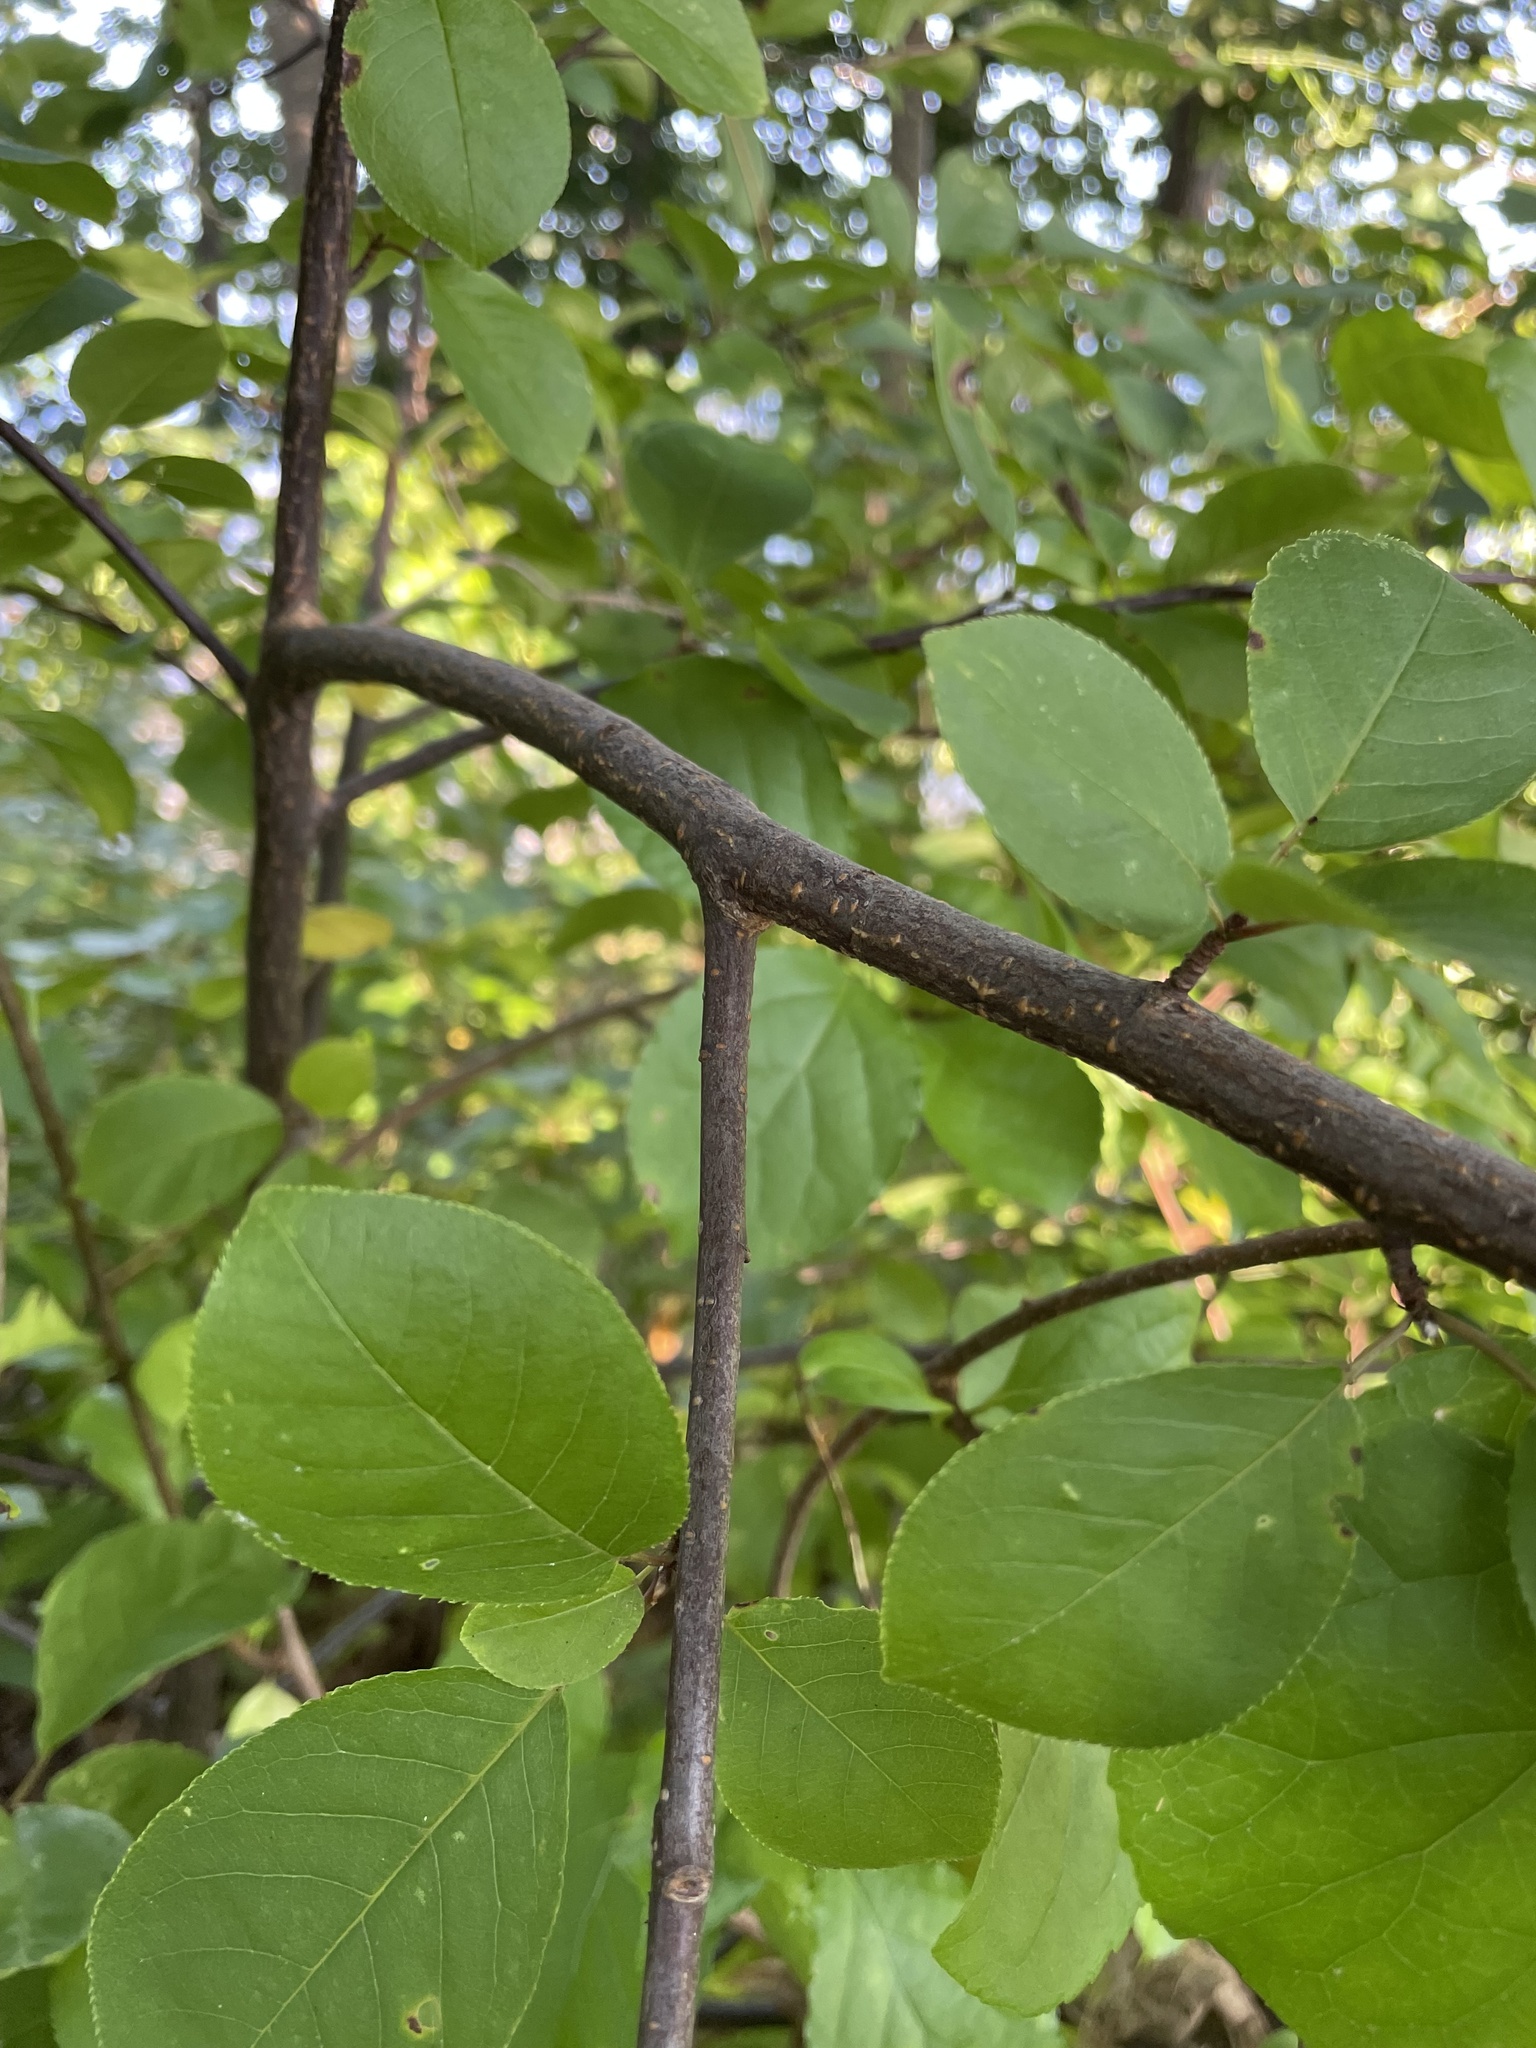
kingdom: Plantae
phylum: Tracheophyta
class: Magnoliopsida
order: Rosales
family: Rosaceae
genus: Prunus
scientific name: Prunus virginiana
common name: Chokecherry
